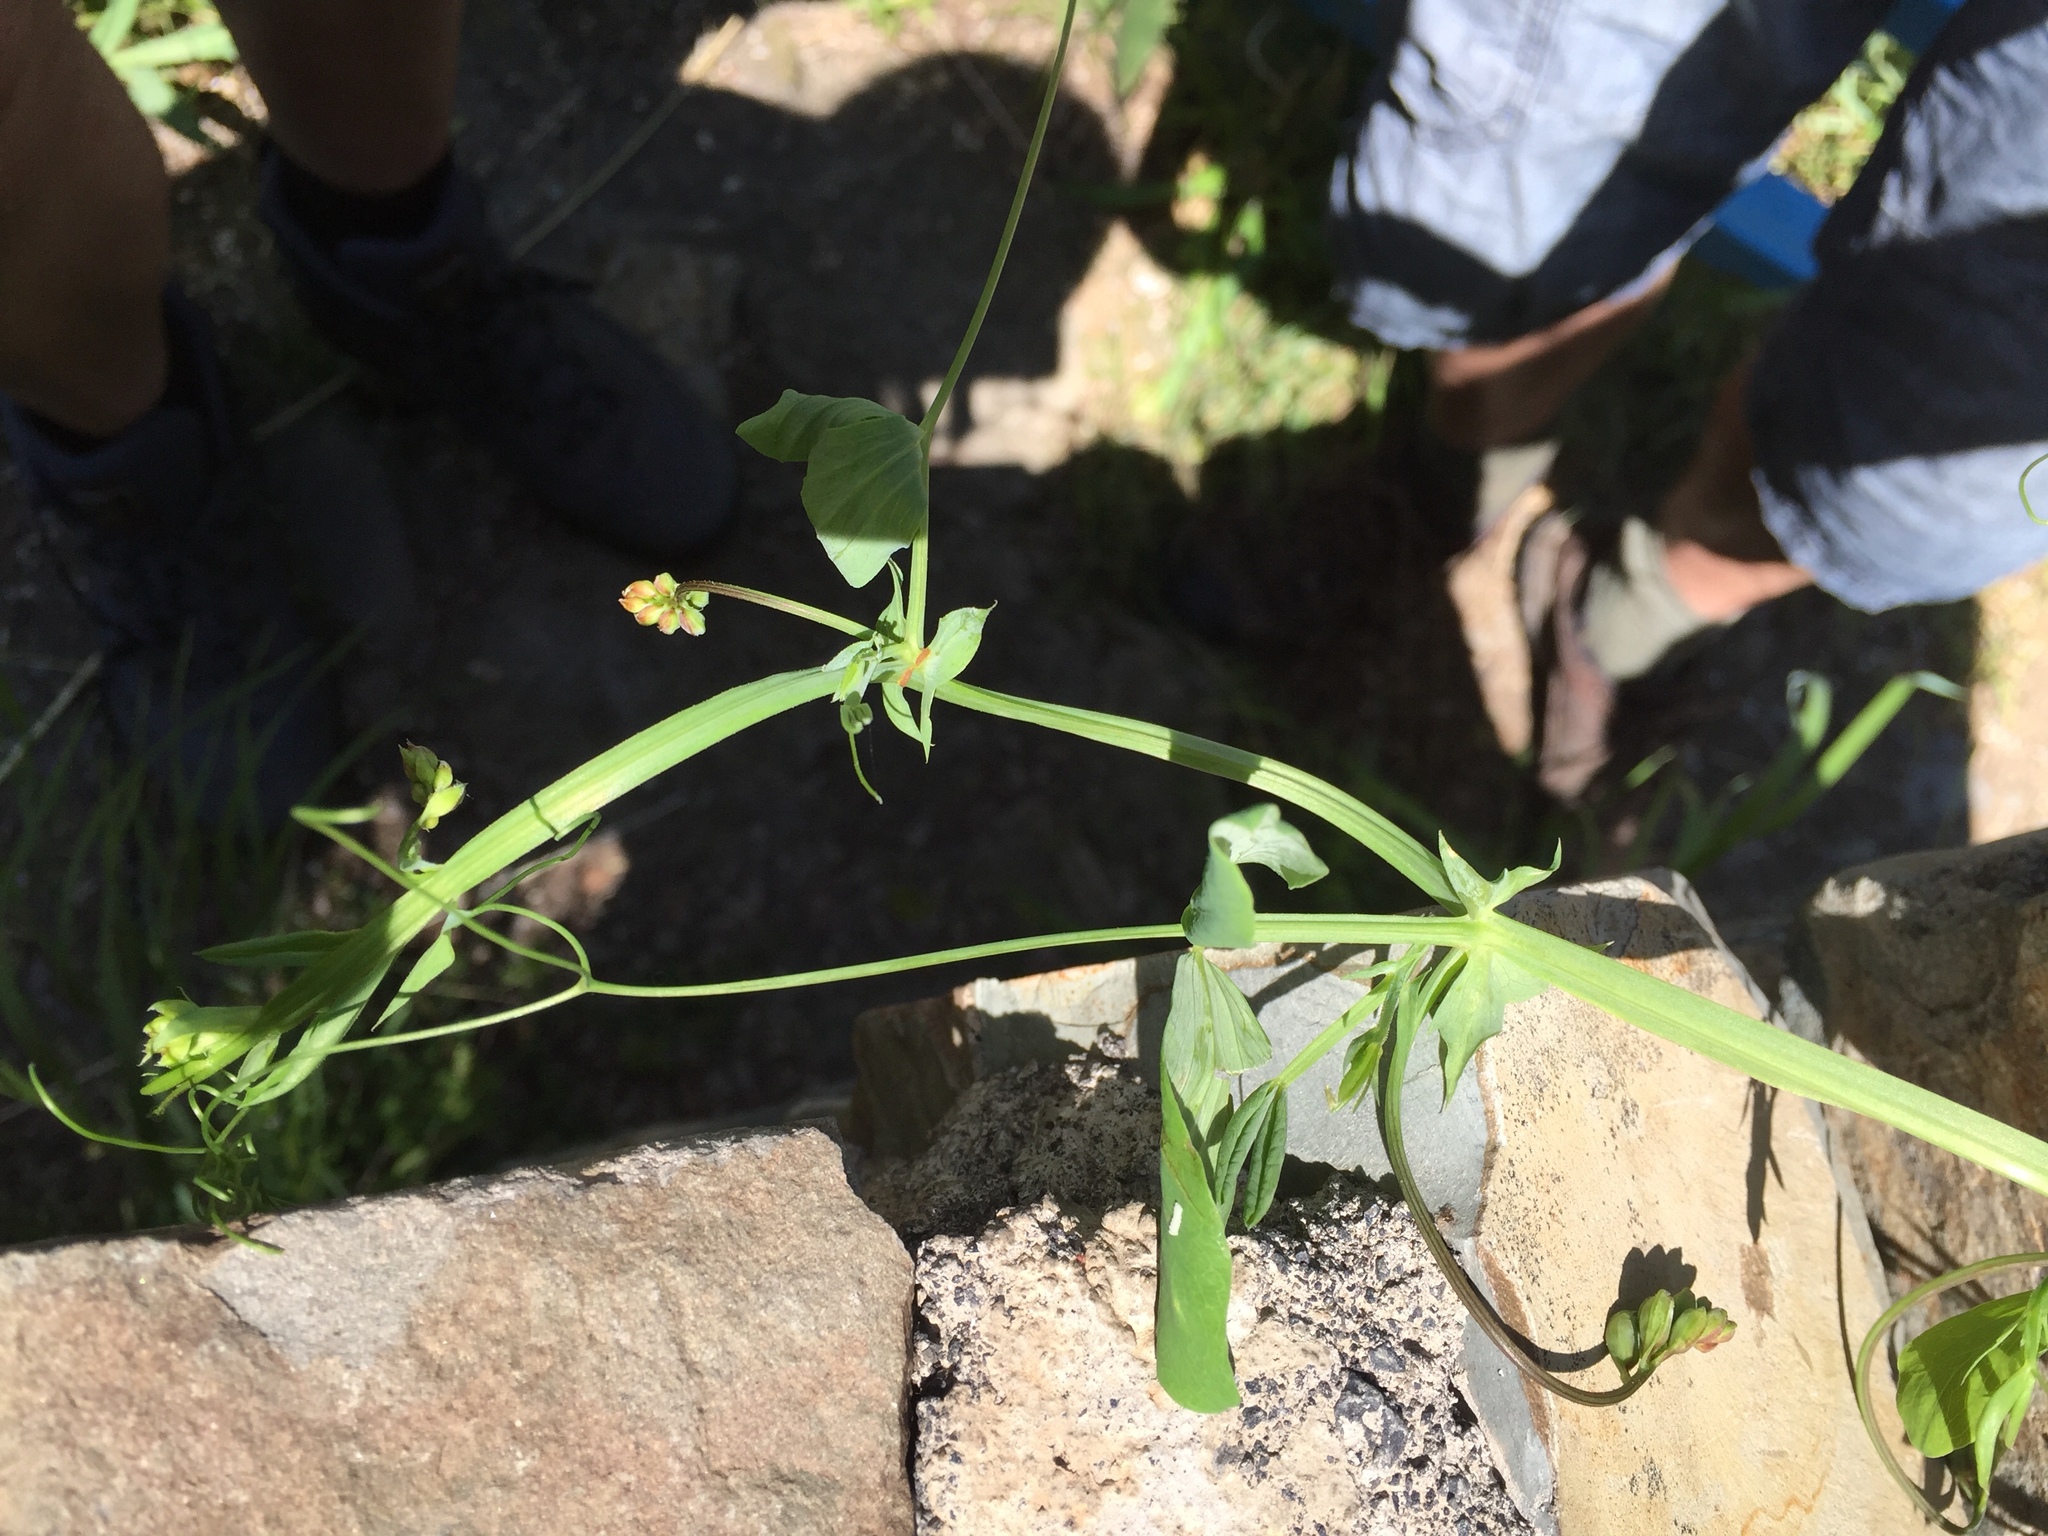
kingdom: Plantae
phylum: Tracheophyta
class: Magnoliopsida
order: Fabales
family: Fabaceae
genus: Lathyrus
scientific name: Lathyrus miniatus
